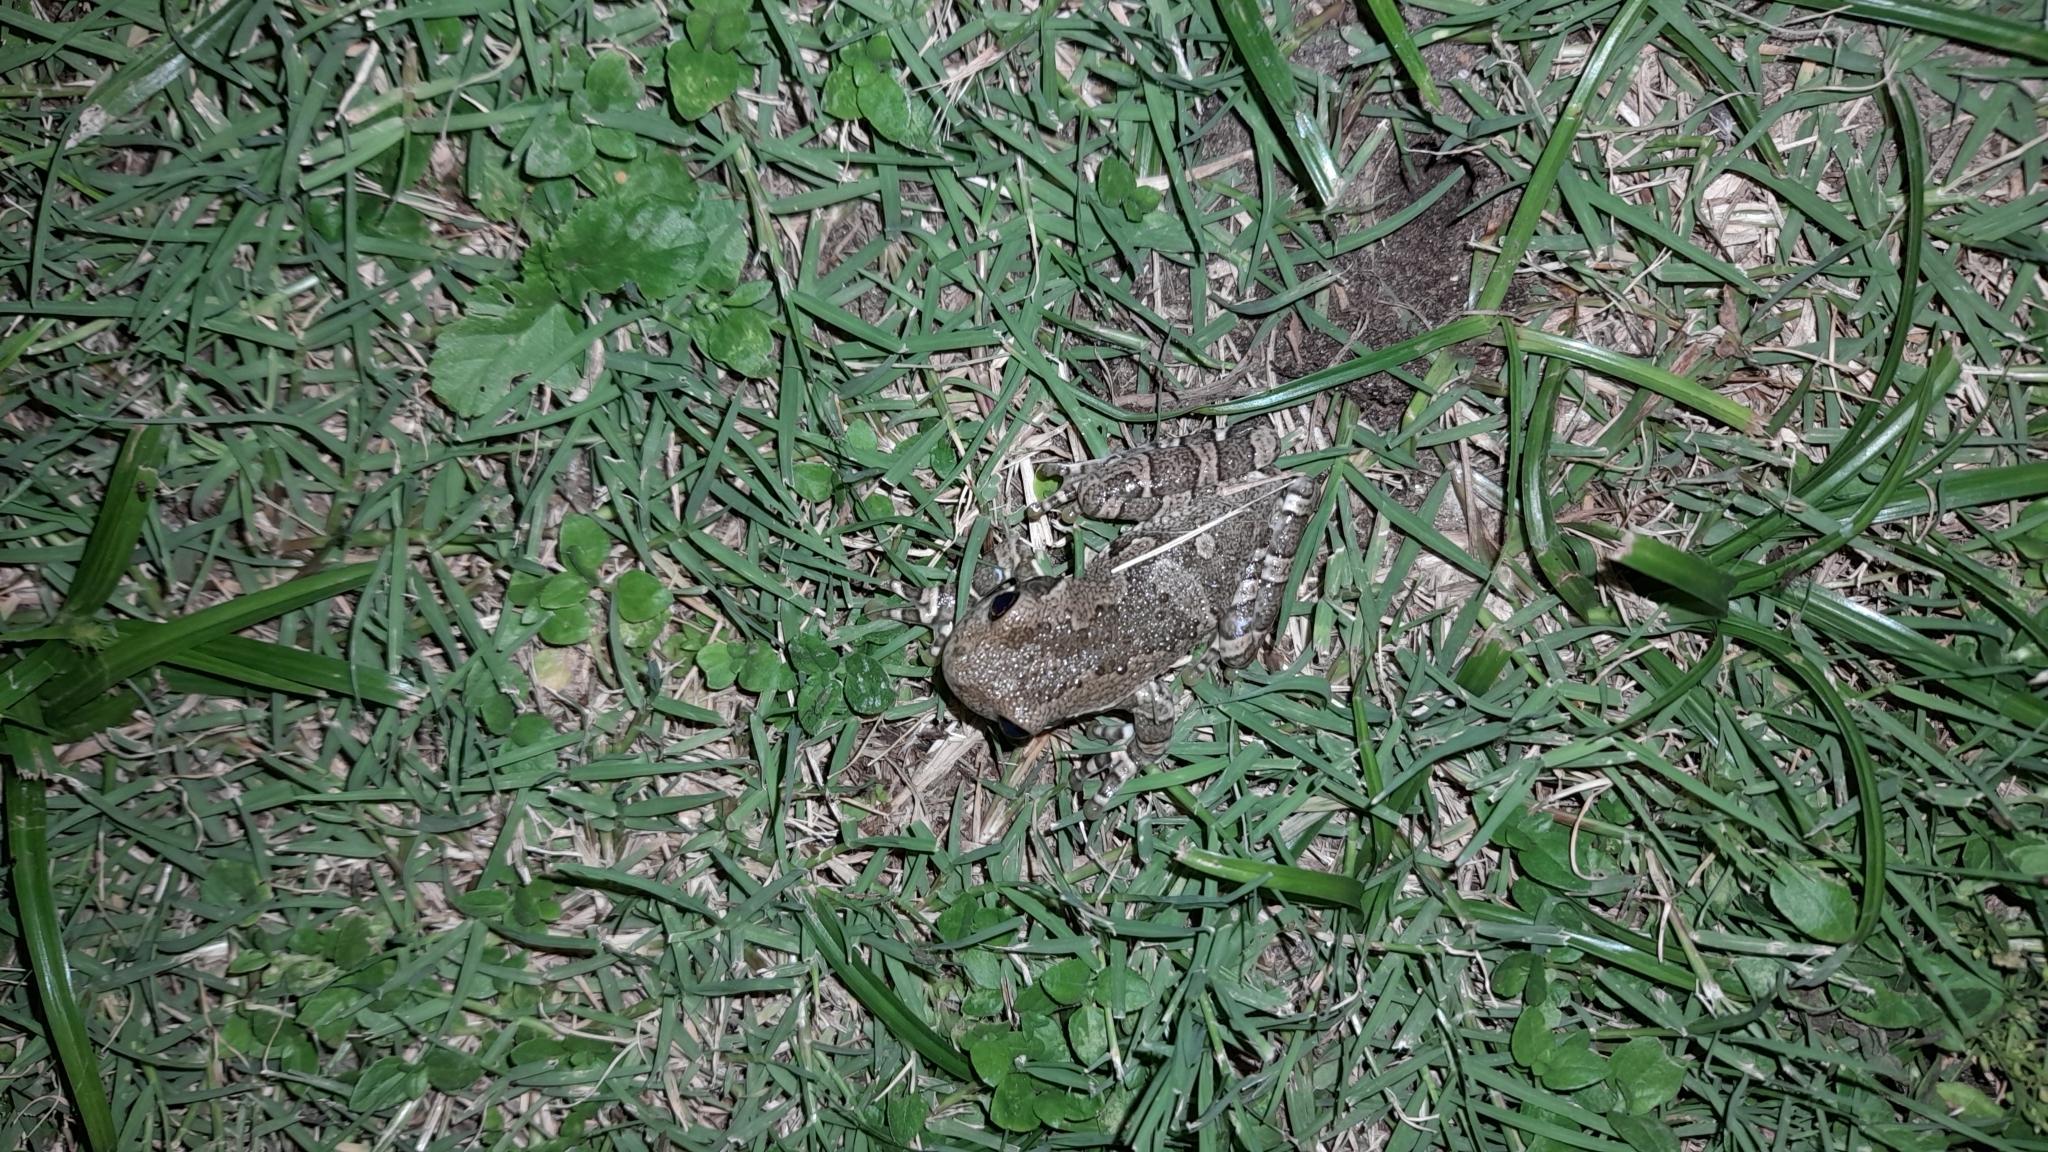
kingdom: Animalia
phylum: Chordata
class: Amphibia
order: Anura
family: Hylidae
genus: Trachycephalus
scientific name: Trachycephalus typhonius
